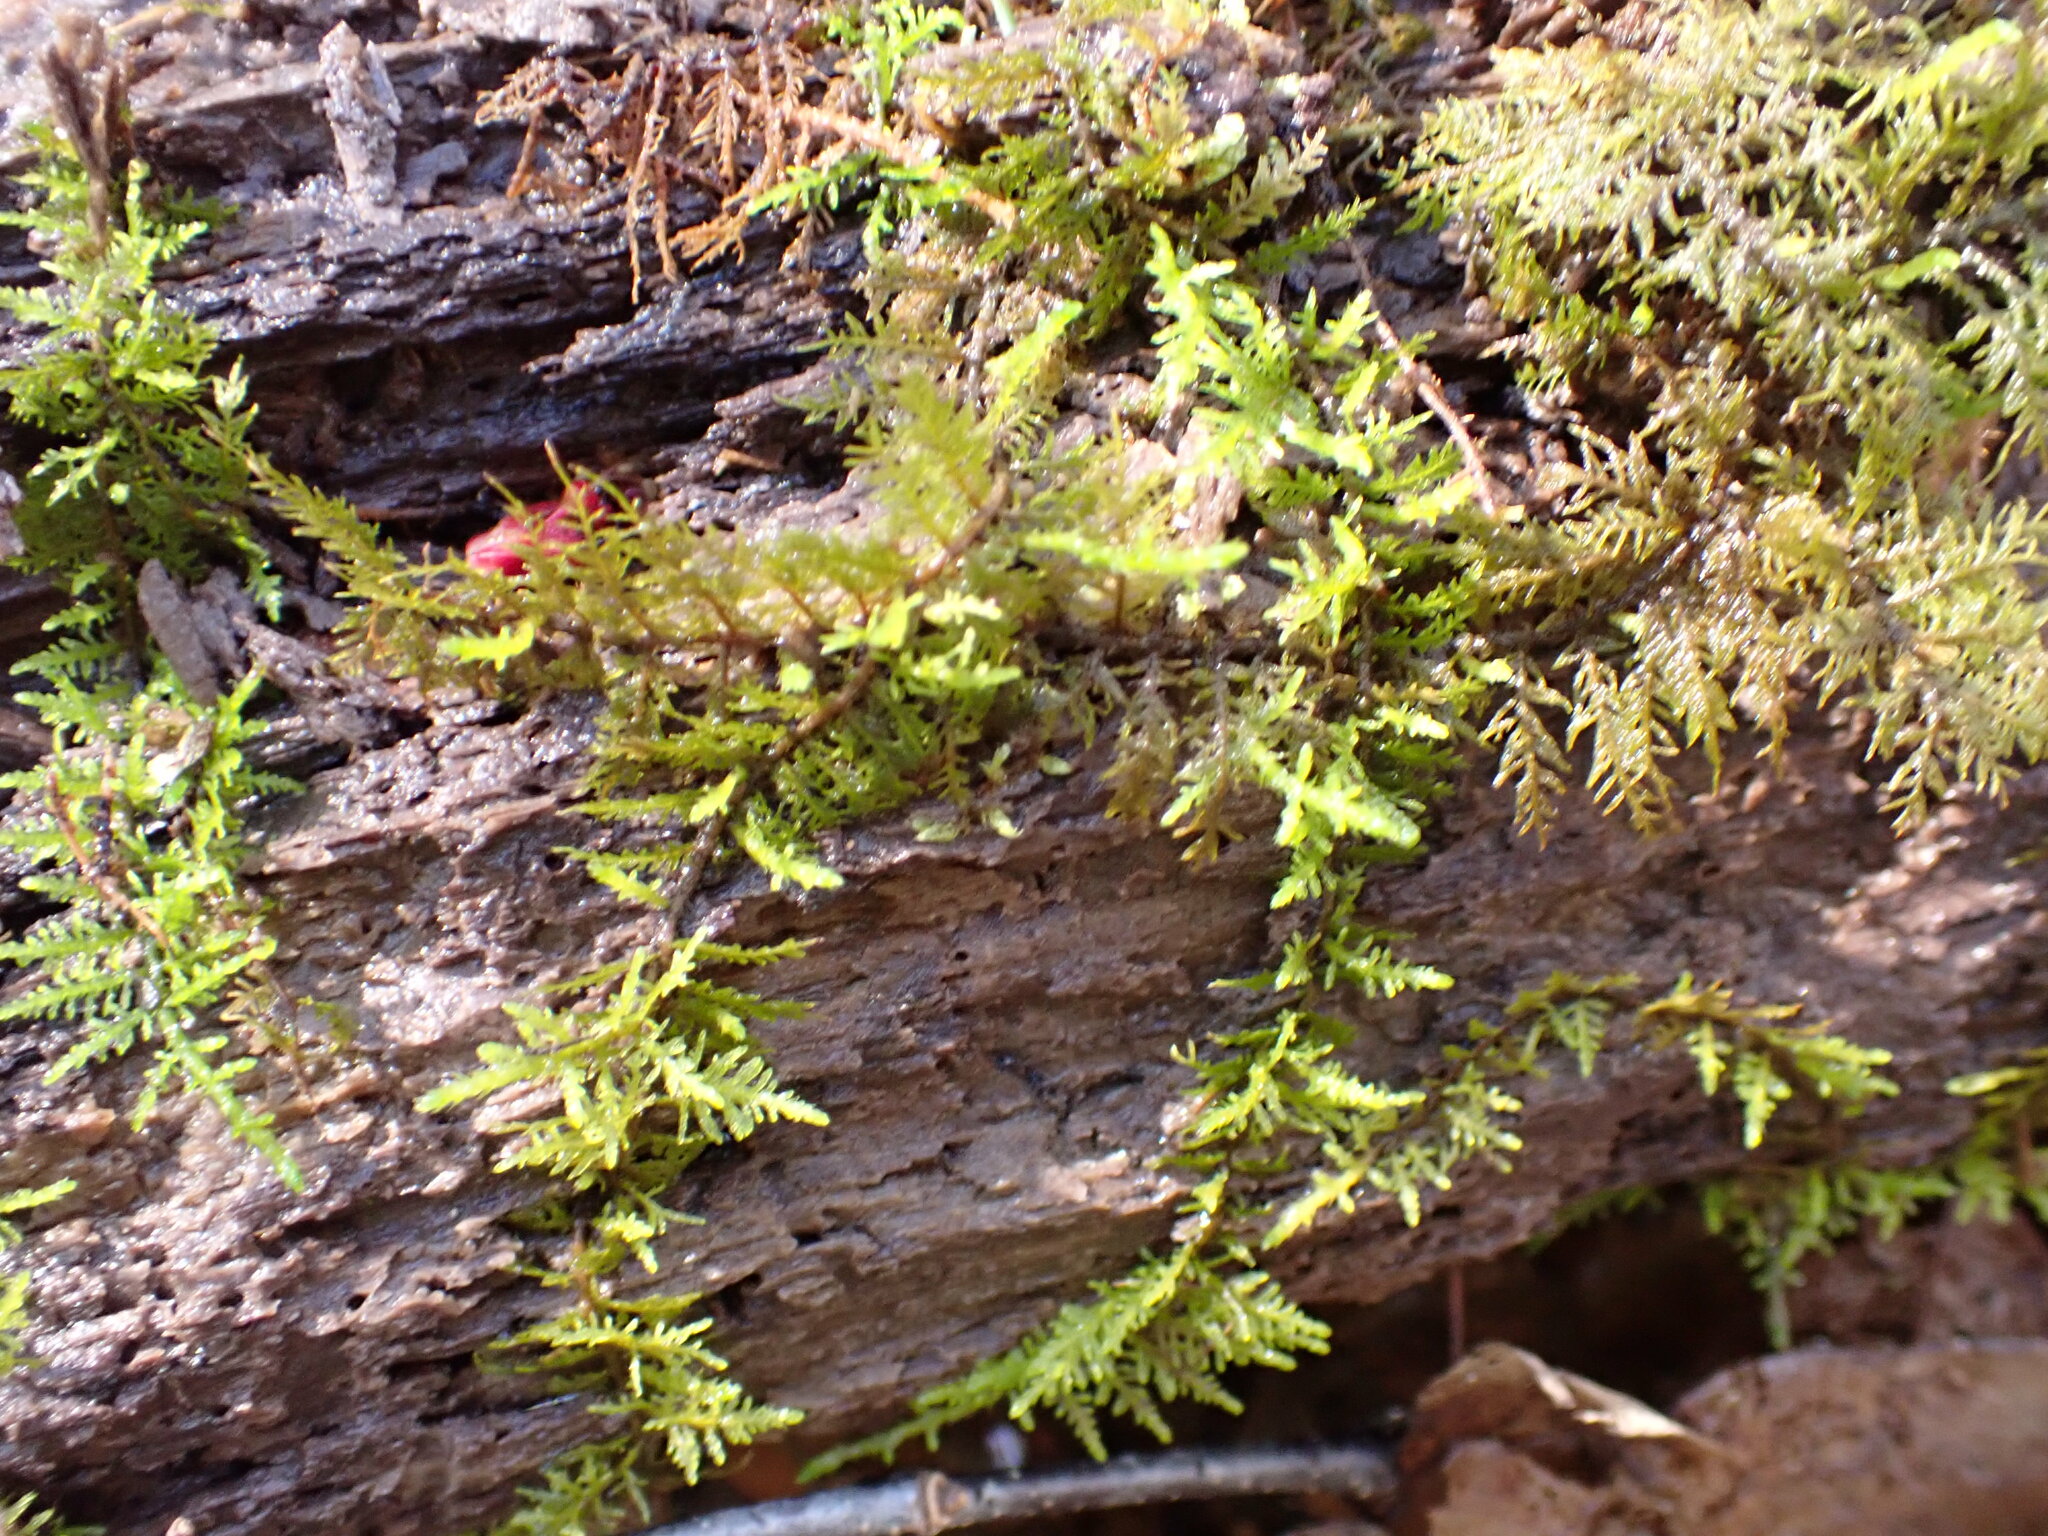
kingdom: Plantae
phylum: Bryophyta
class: Bryopsida
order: Hypnales
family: Thuidiaceae
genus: Thuidium
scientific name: Thuidium delicatulum
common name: Delicate fern moss
